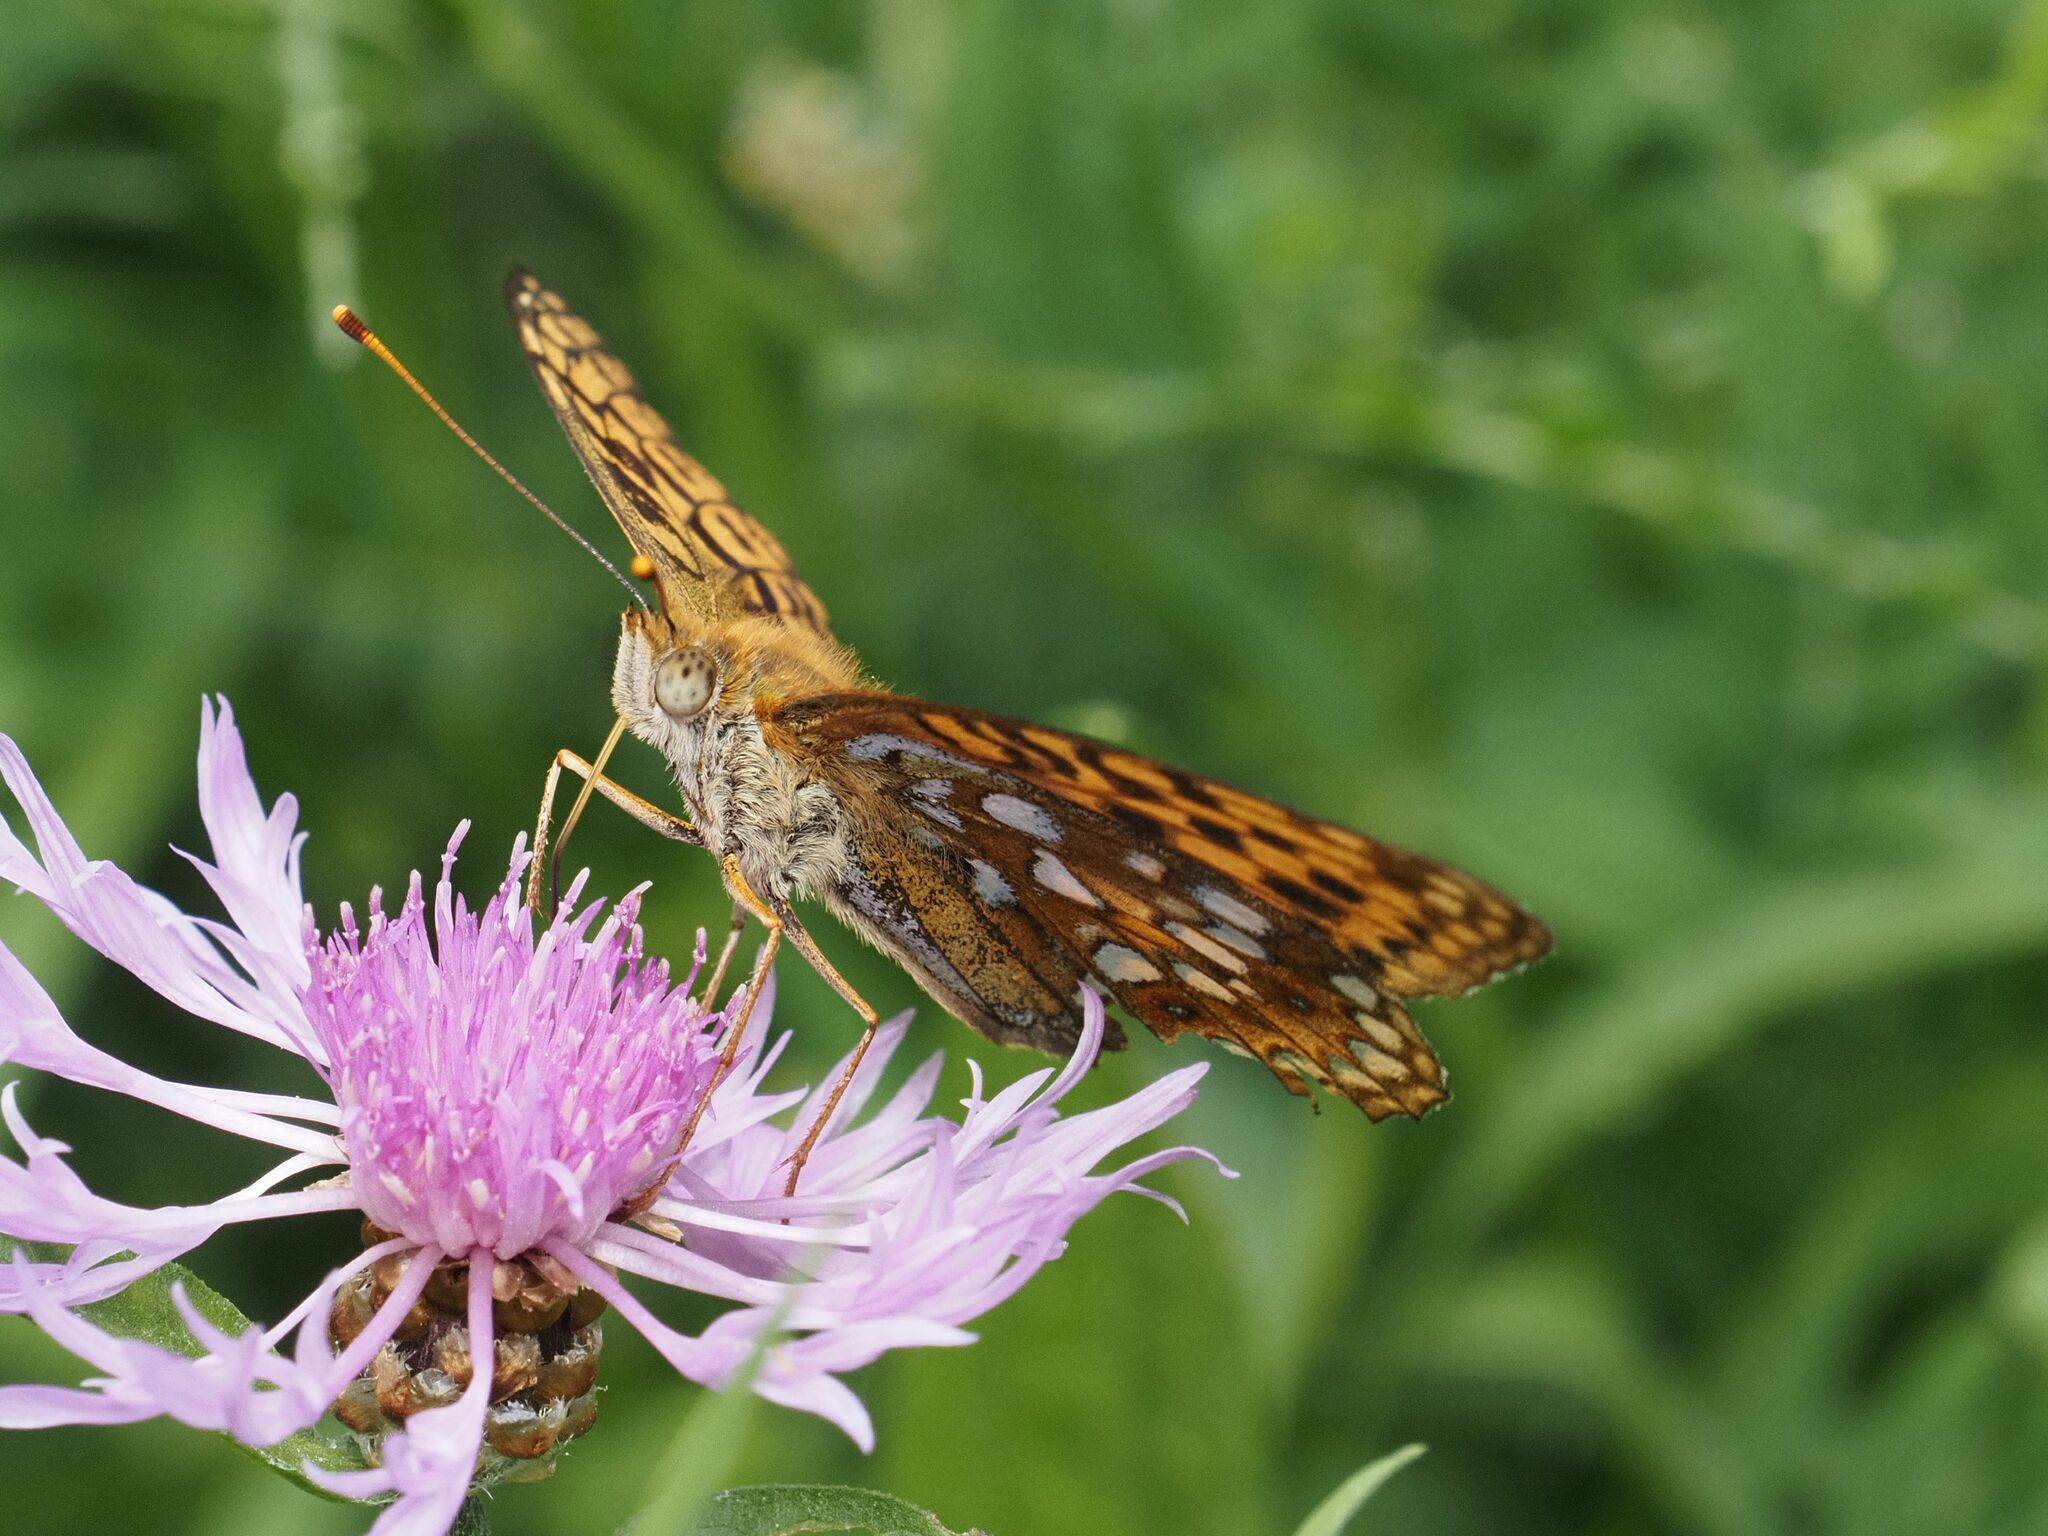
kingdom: Animalia
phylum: Arthropoda
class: Insecta
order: Lepidoptera
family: Nymphalidae
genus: Fabriciana
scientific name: Fabriciana adippe
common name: High brown fritillary
